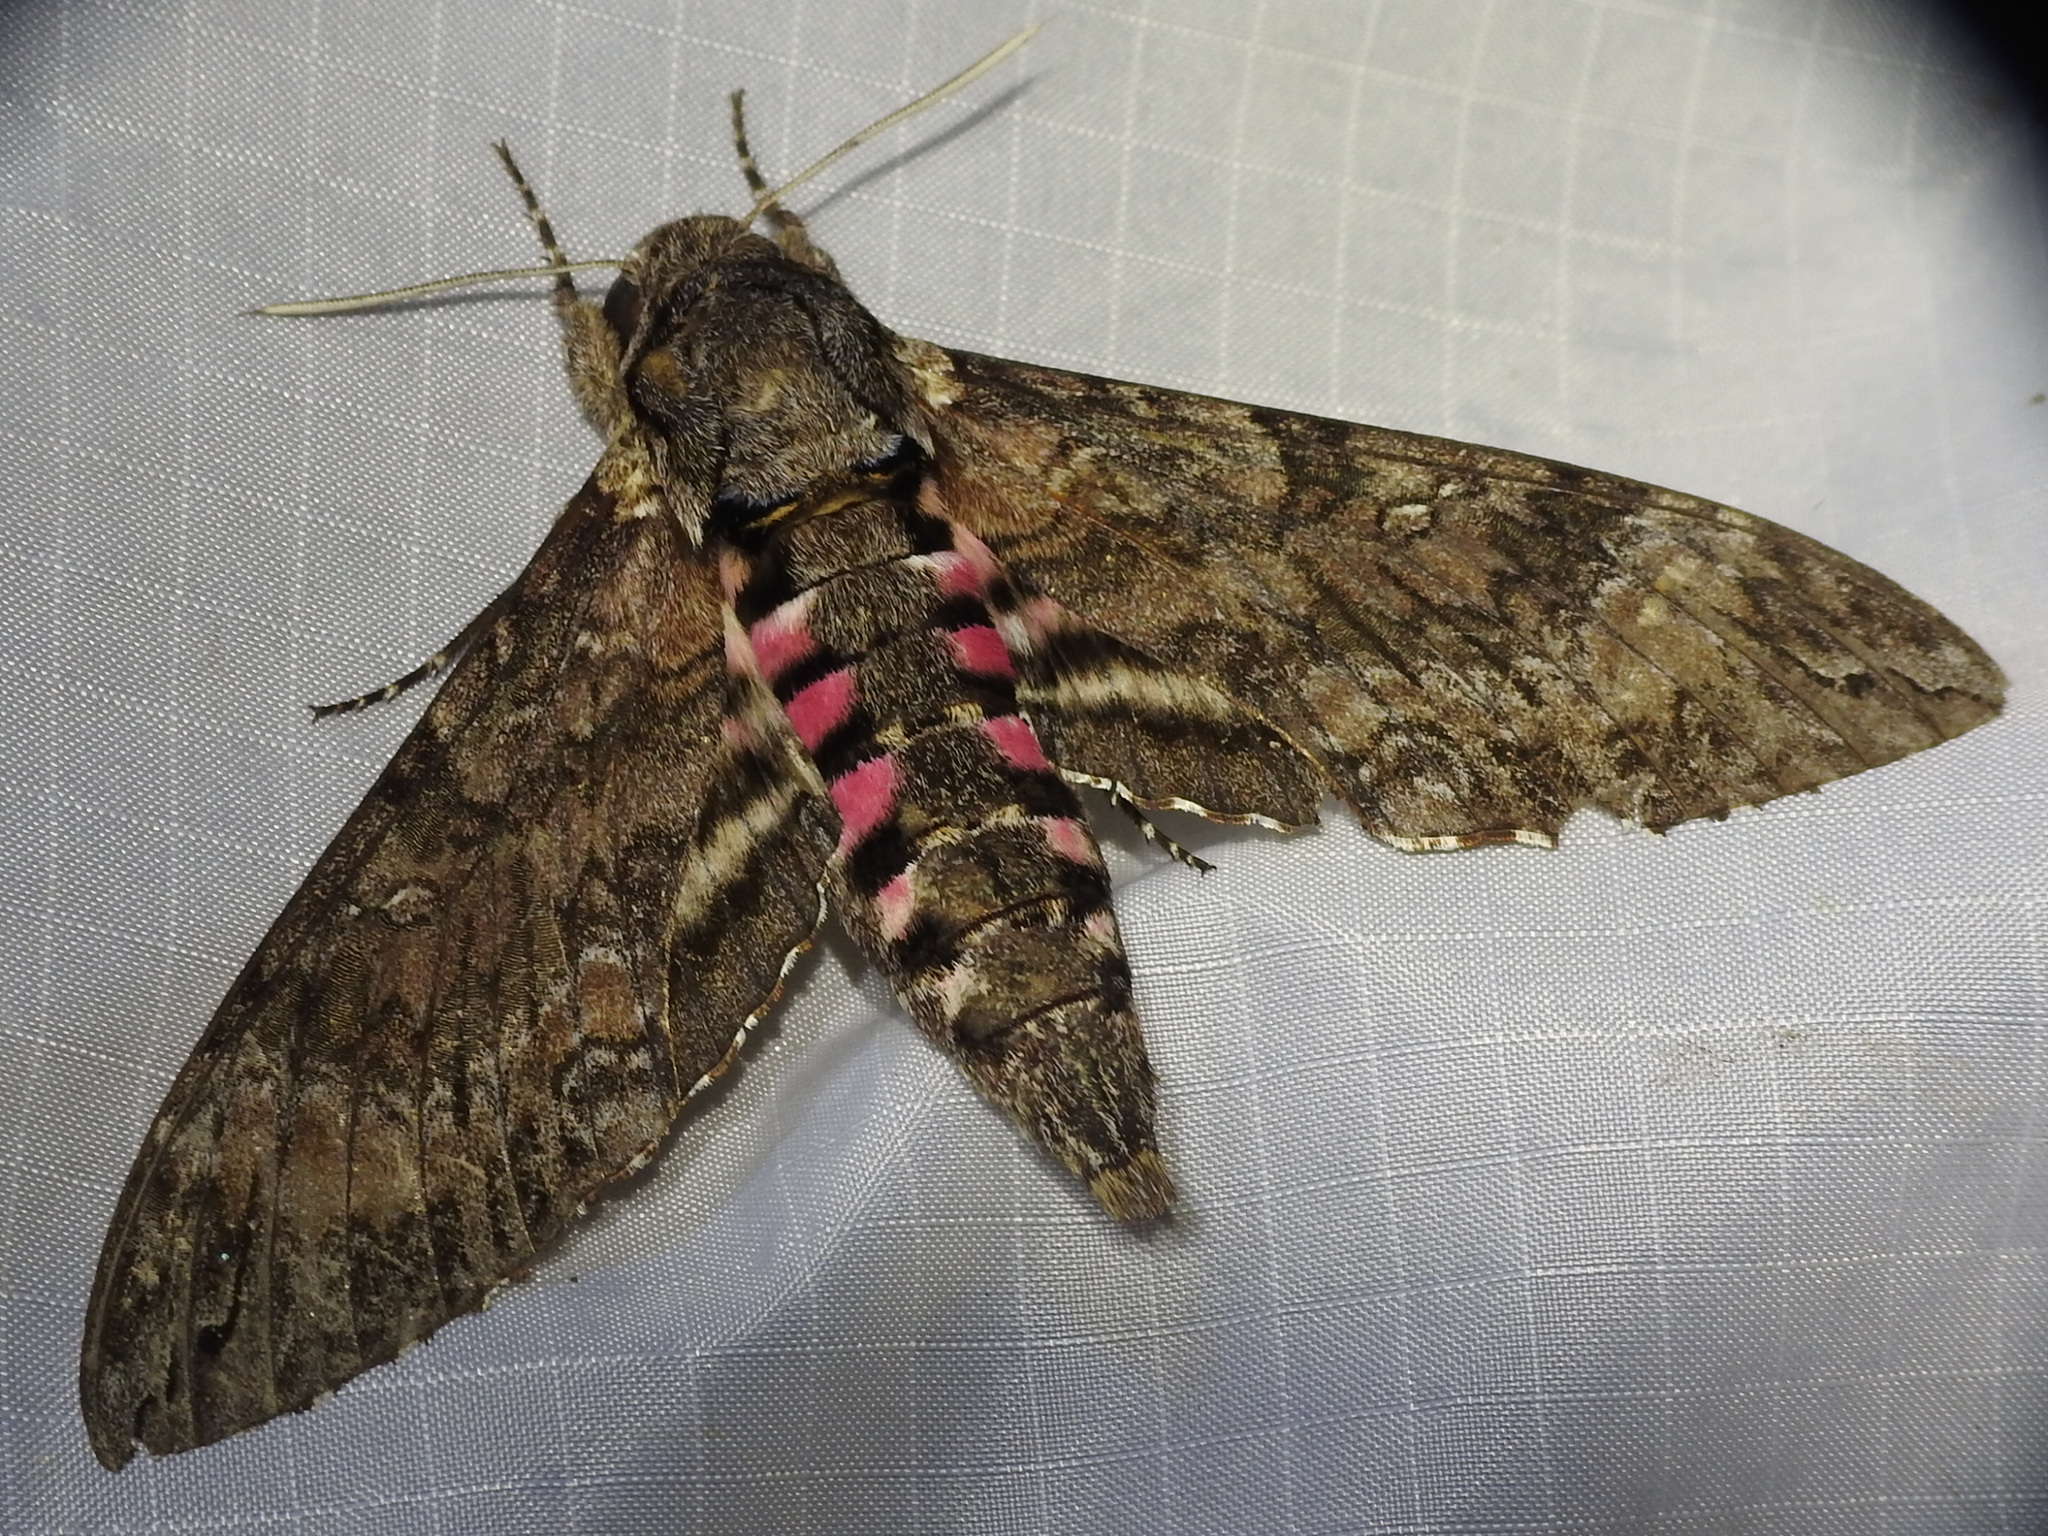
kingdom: Animalia
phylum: Arthropoda
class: Insecta
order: Lepidoptera
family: Sphingidae
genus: Agrius
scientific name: Agrius cingulata
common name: Pink-spotted hawkmoth
